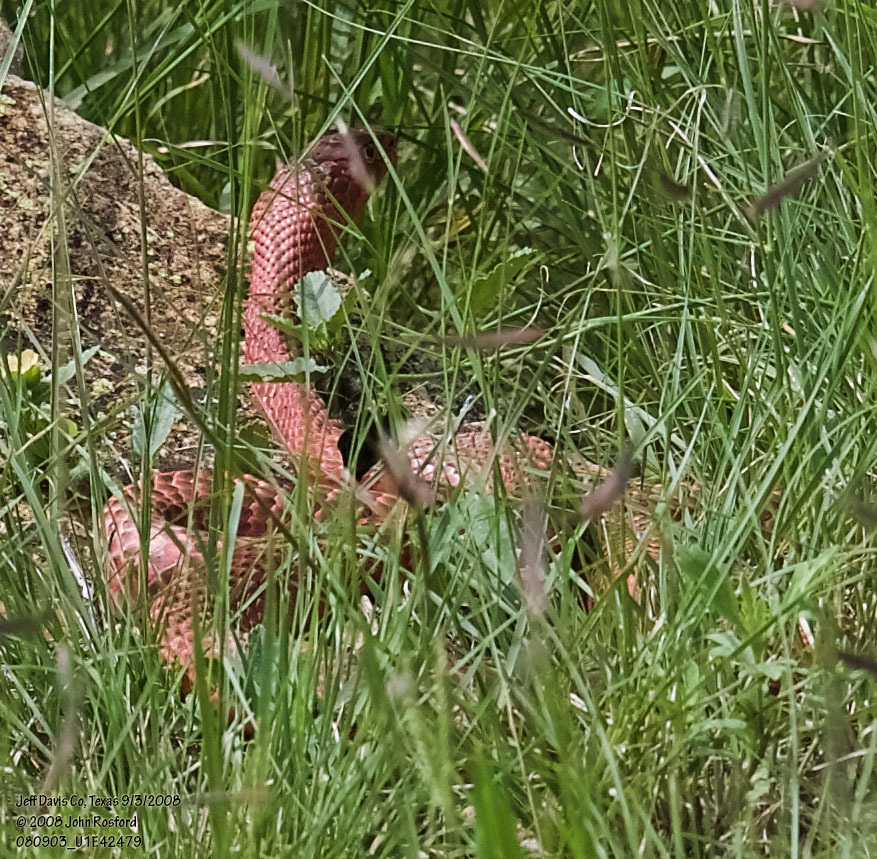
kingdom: Animalia
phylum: Chordata
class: Squamata
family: Colubridae
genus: Masticophis
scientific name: Masticophis flagellum
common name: Coachwhip
